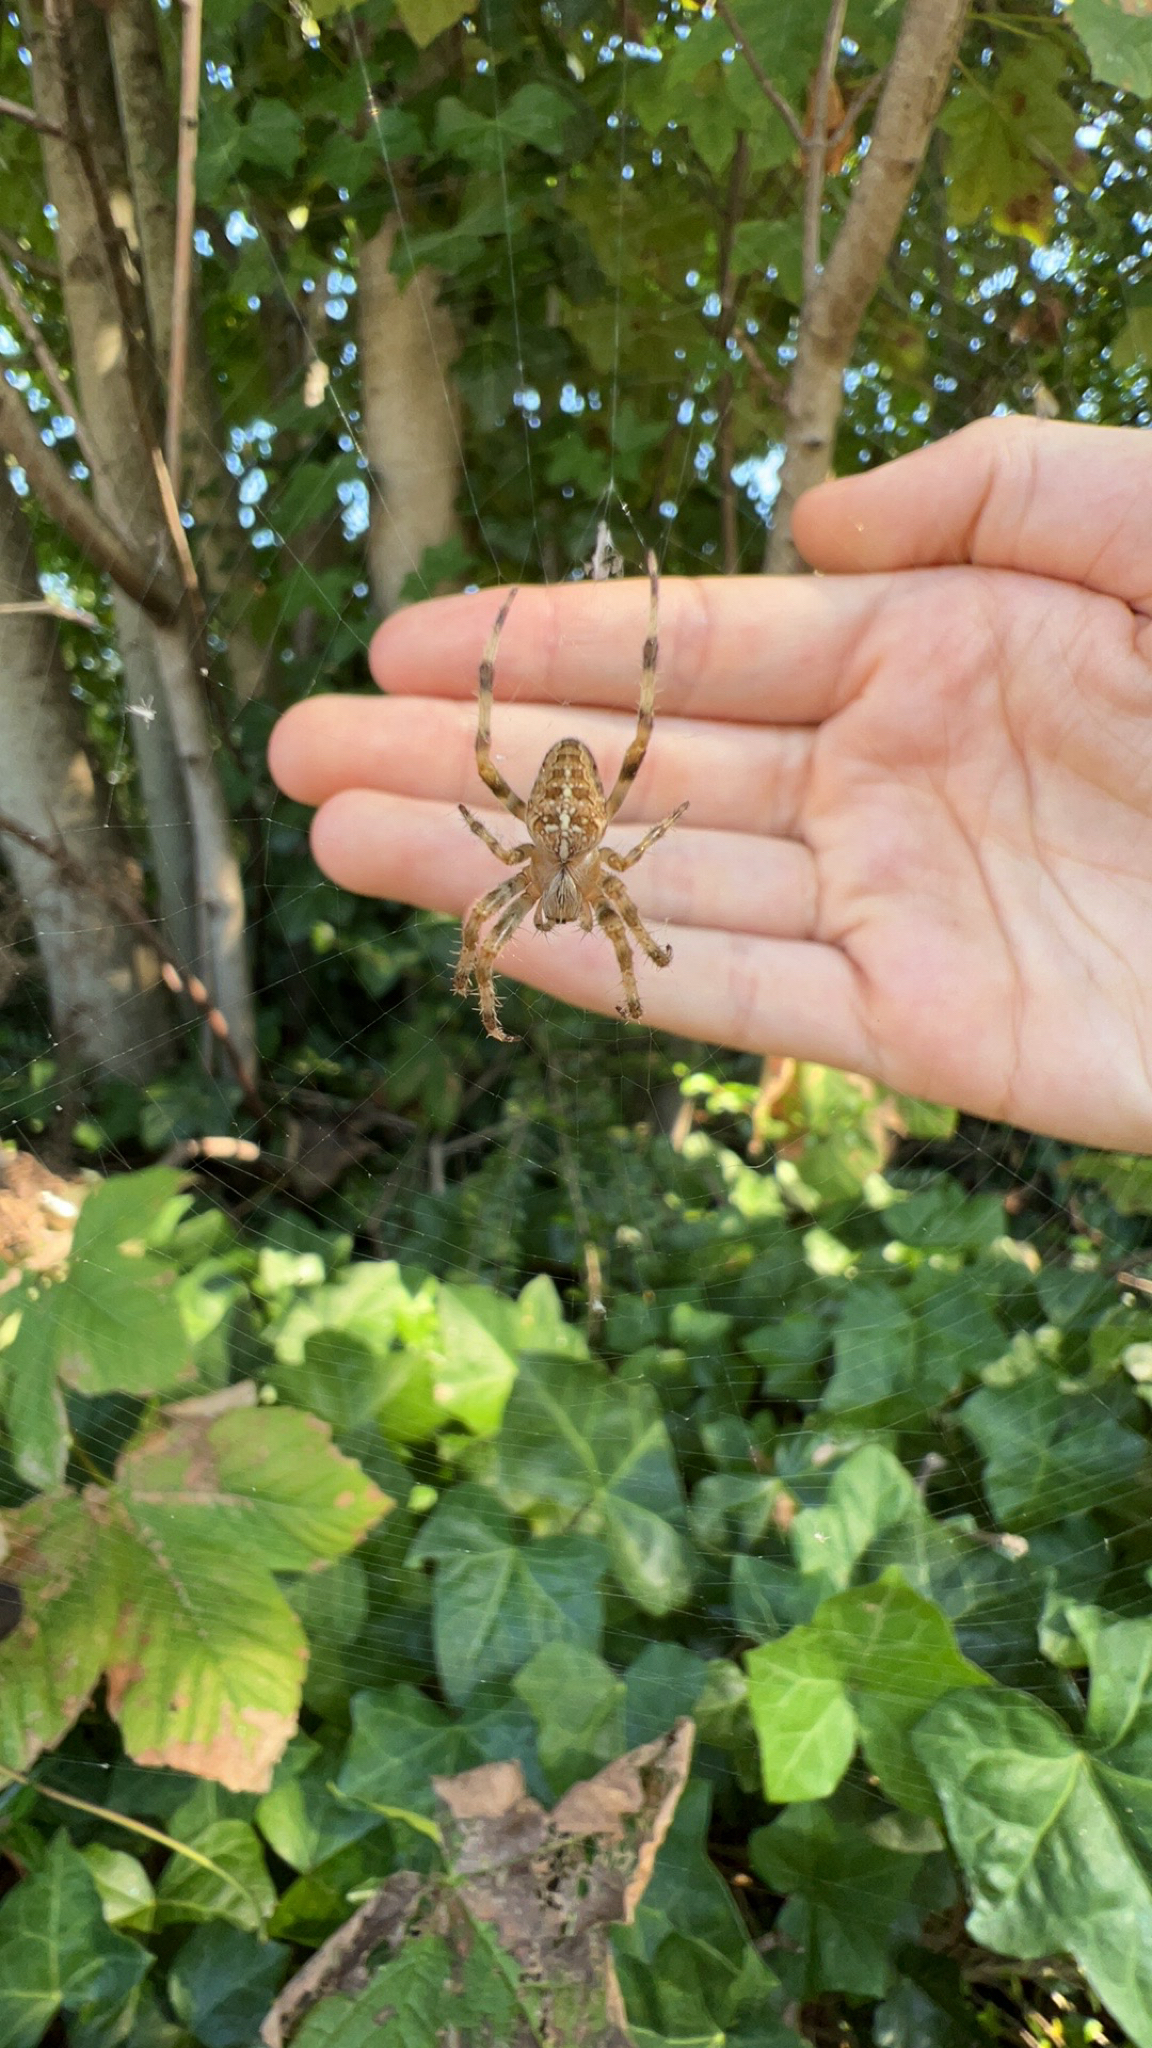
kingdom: Animalia
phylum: Arthropoda
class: Arachnida
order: Araneae
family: Araneidae
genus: Araneus
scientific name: Araneus diadematus
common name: Cross orbweaver
